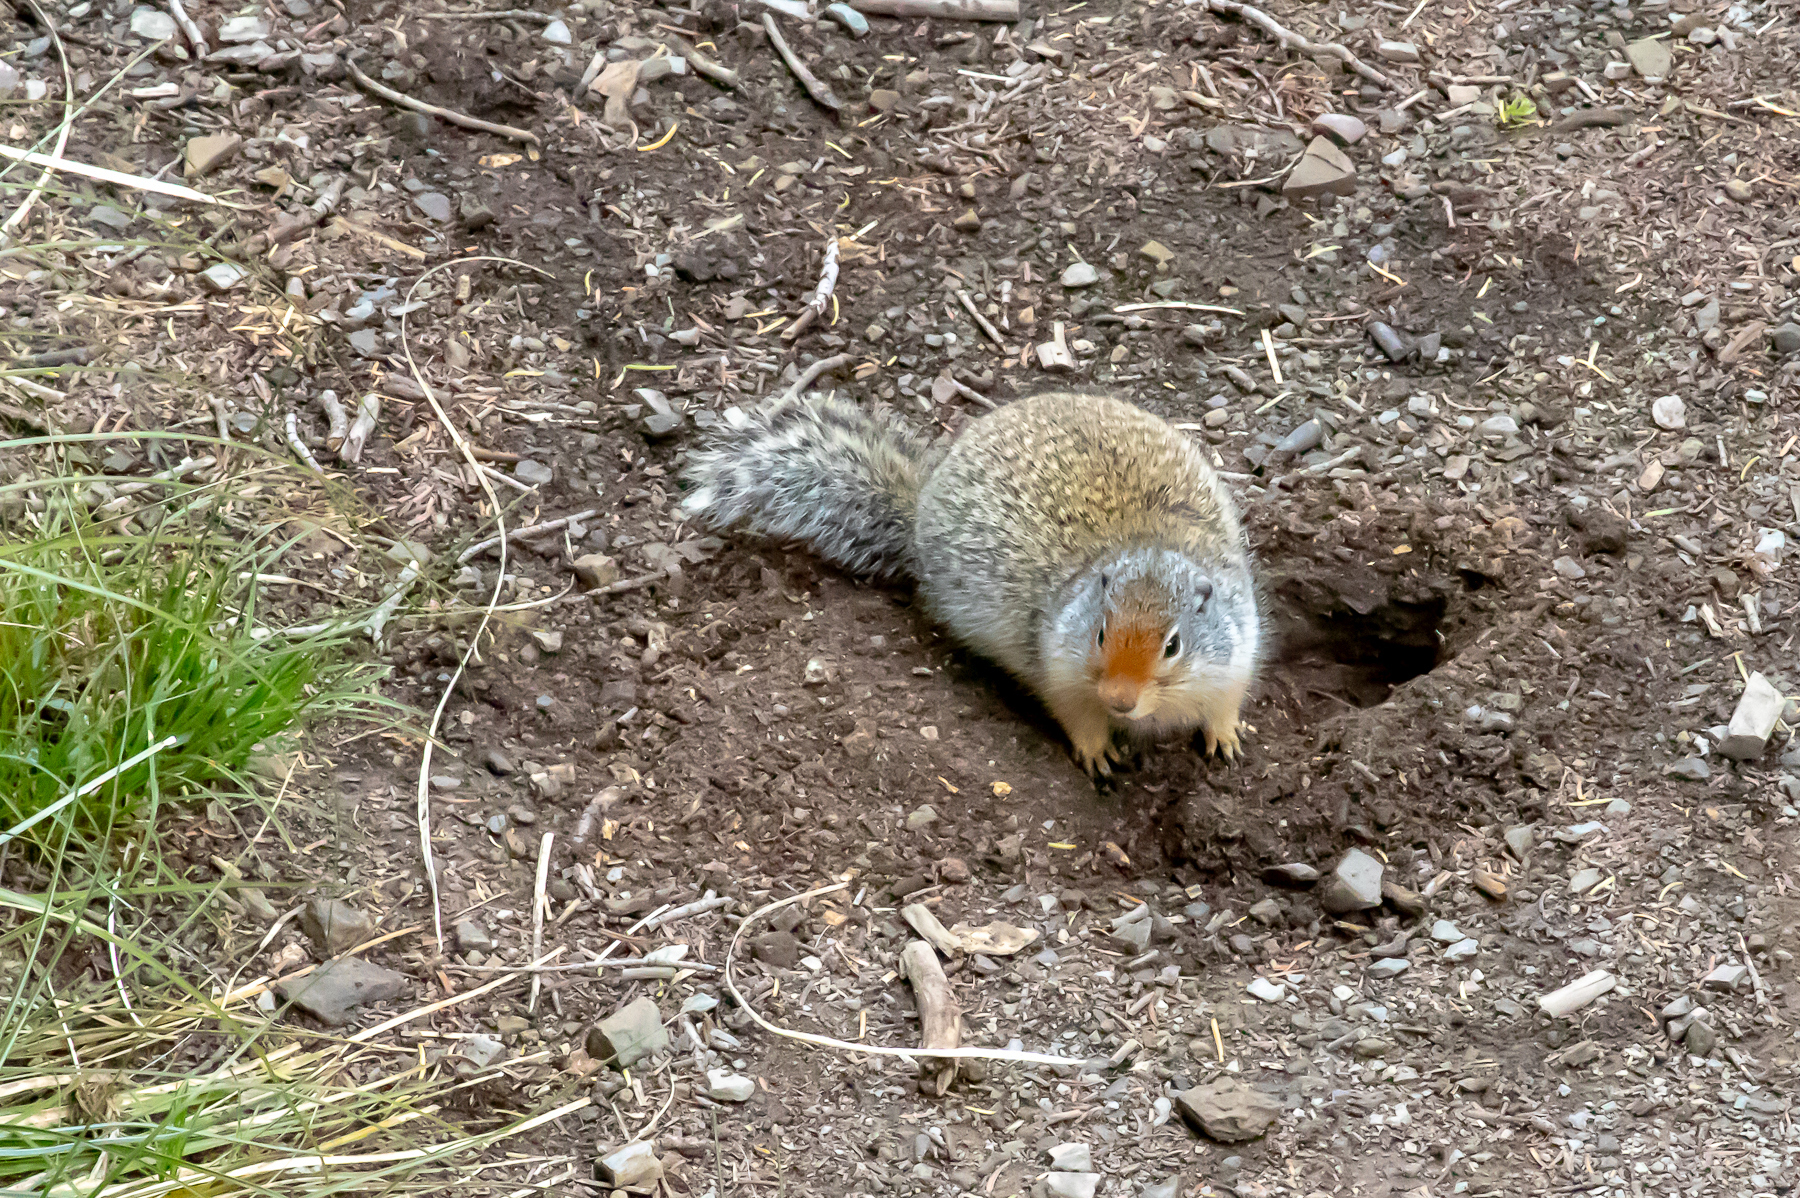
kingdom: Animalia
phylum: Chordata
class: Mammalia
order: Rodentia
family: Sciuridae
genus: Urocitellus
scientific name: Urocitellus columbianus
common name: Columbian ground squirrel
